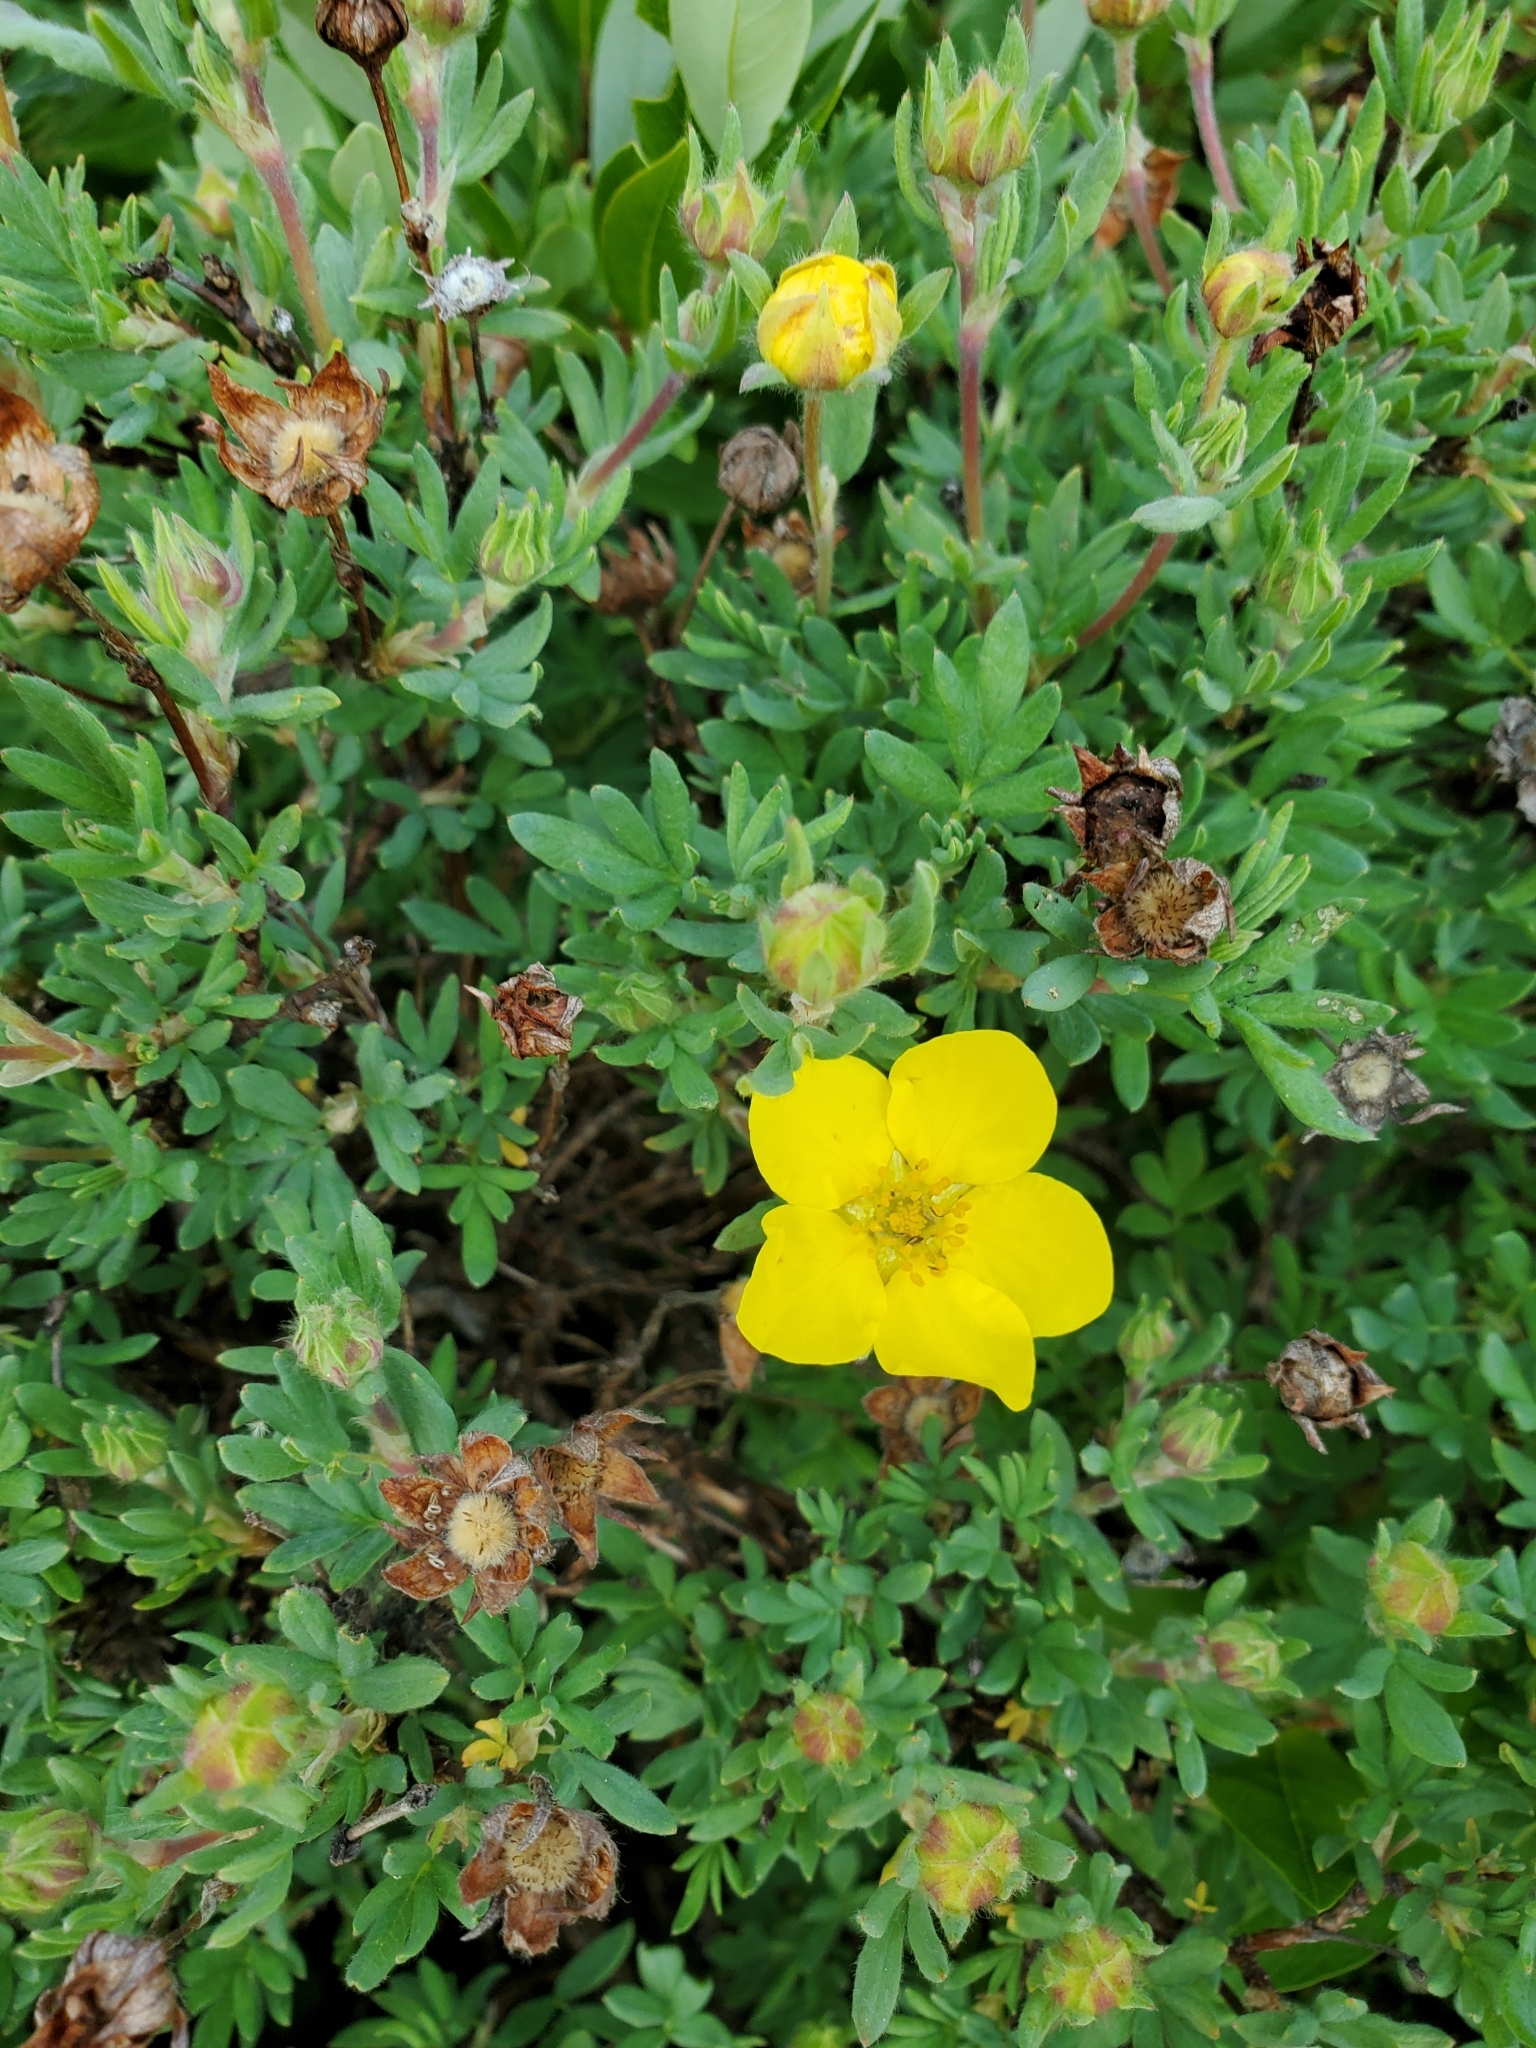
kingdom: Plantae
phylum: Tracheophyta
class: Magnoliopsida
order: Rosales
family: Rosaceae
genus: Dasiphora
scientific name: Dasiphora fruticosa
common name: Shrubby cinquefoil
